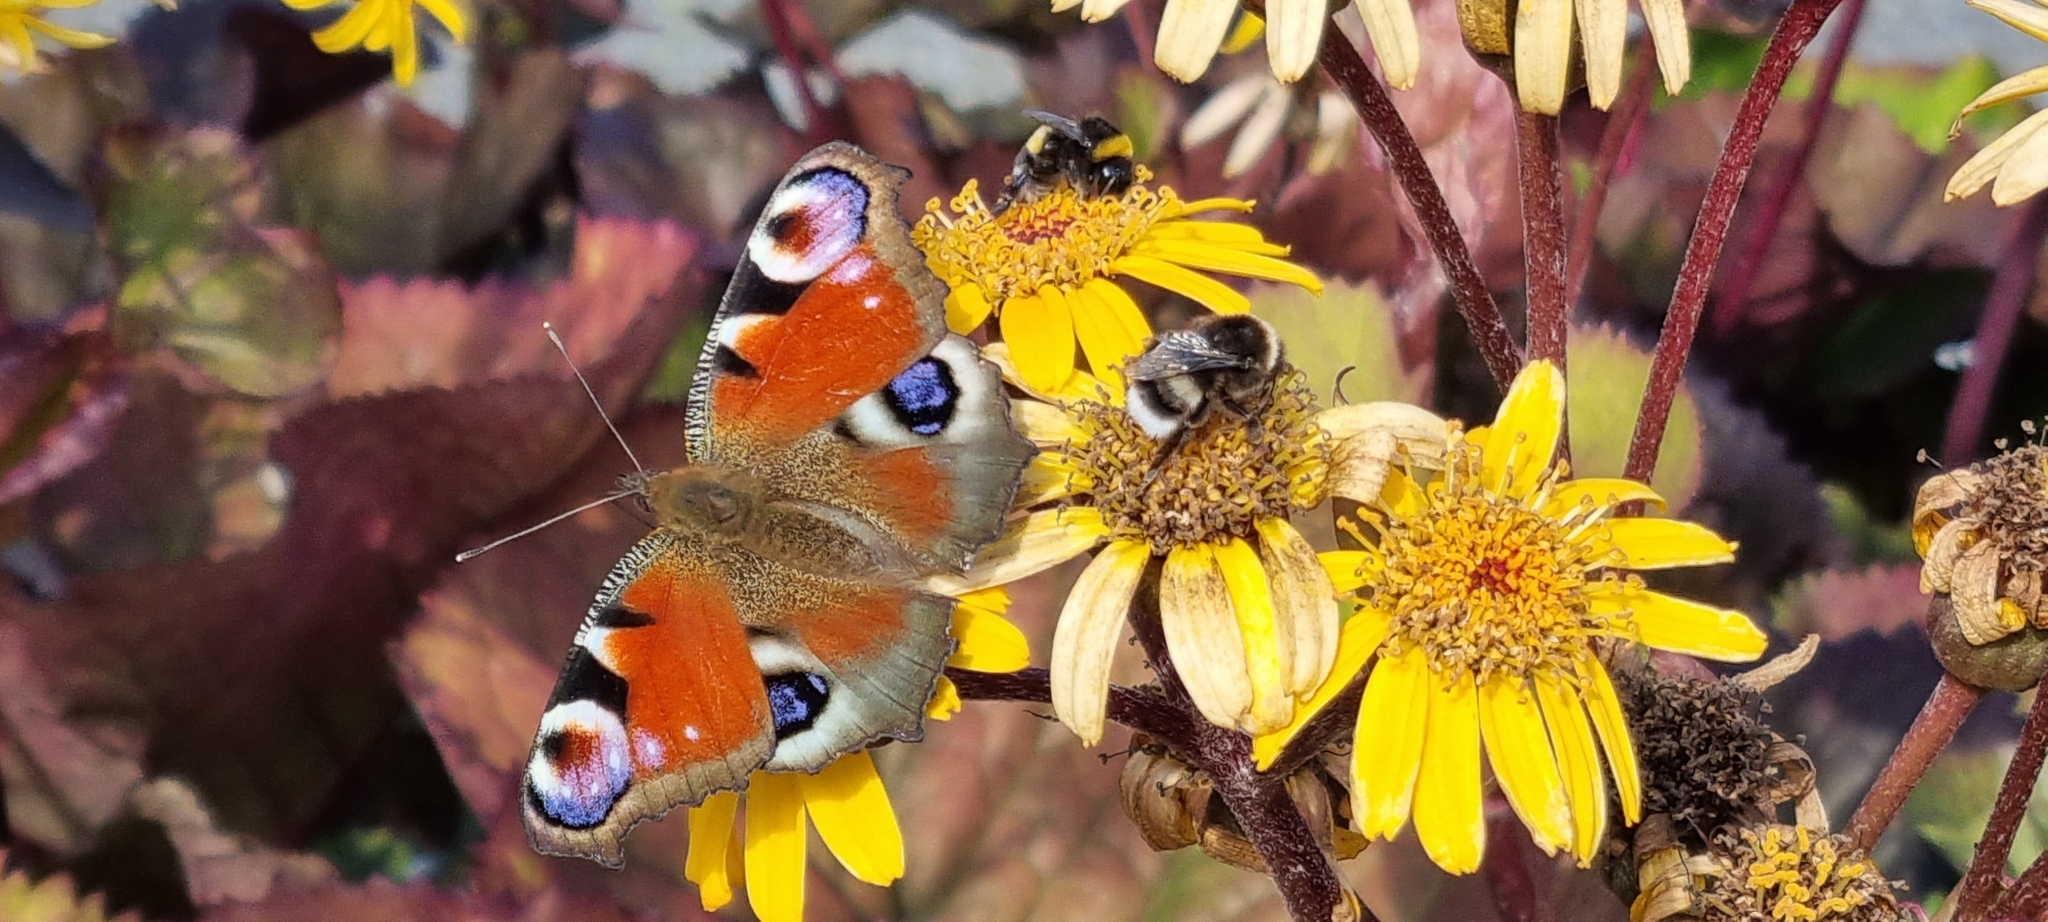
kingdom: Animalia
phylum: Arthropoda
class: Insecta
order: Lepidoptera
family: Nymphalidae
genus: Aglais
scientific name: Aglais io
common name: Peacock
